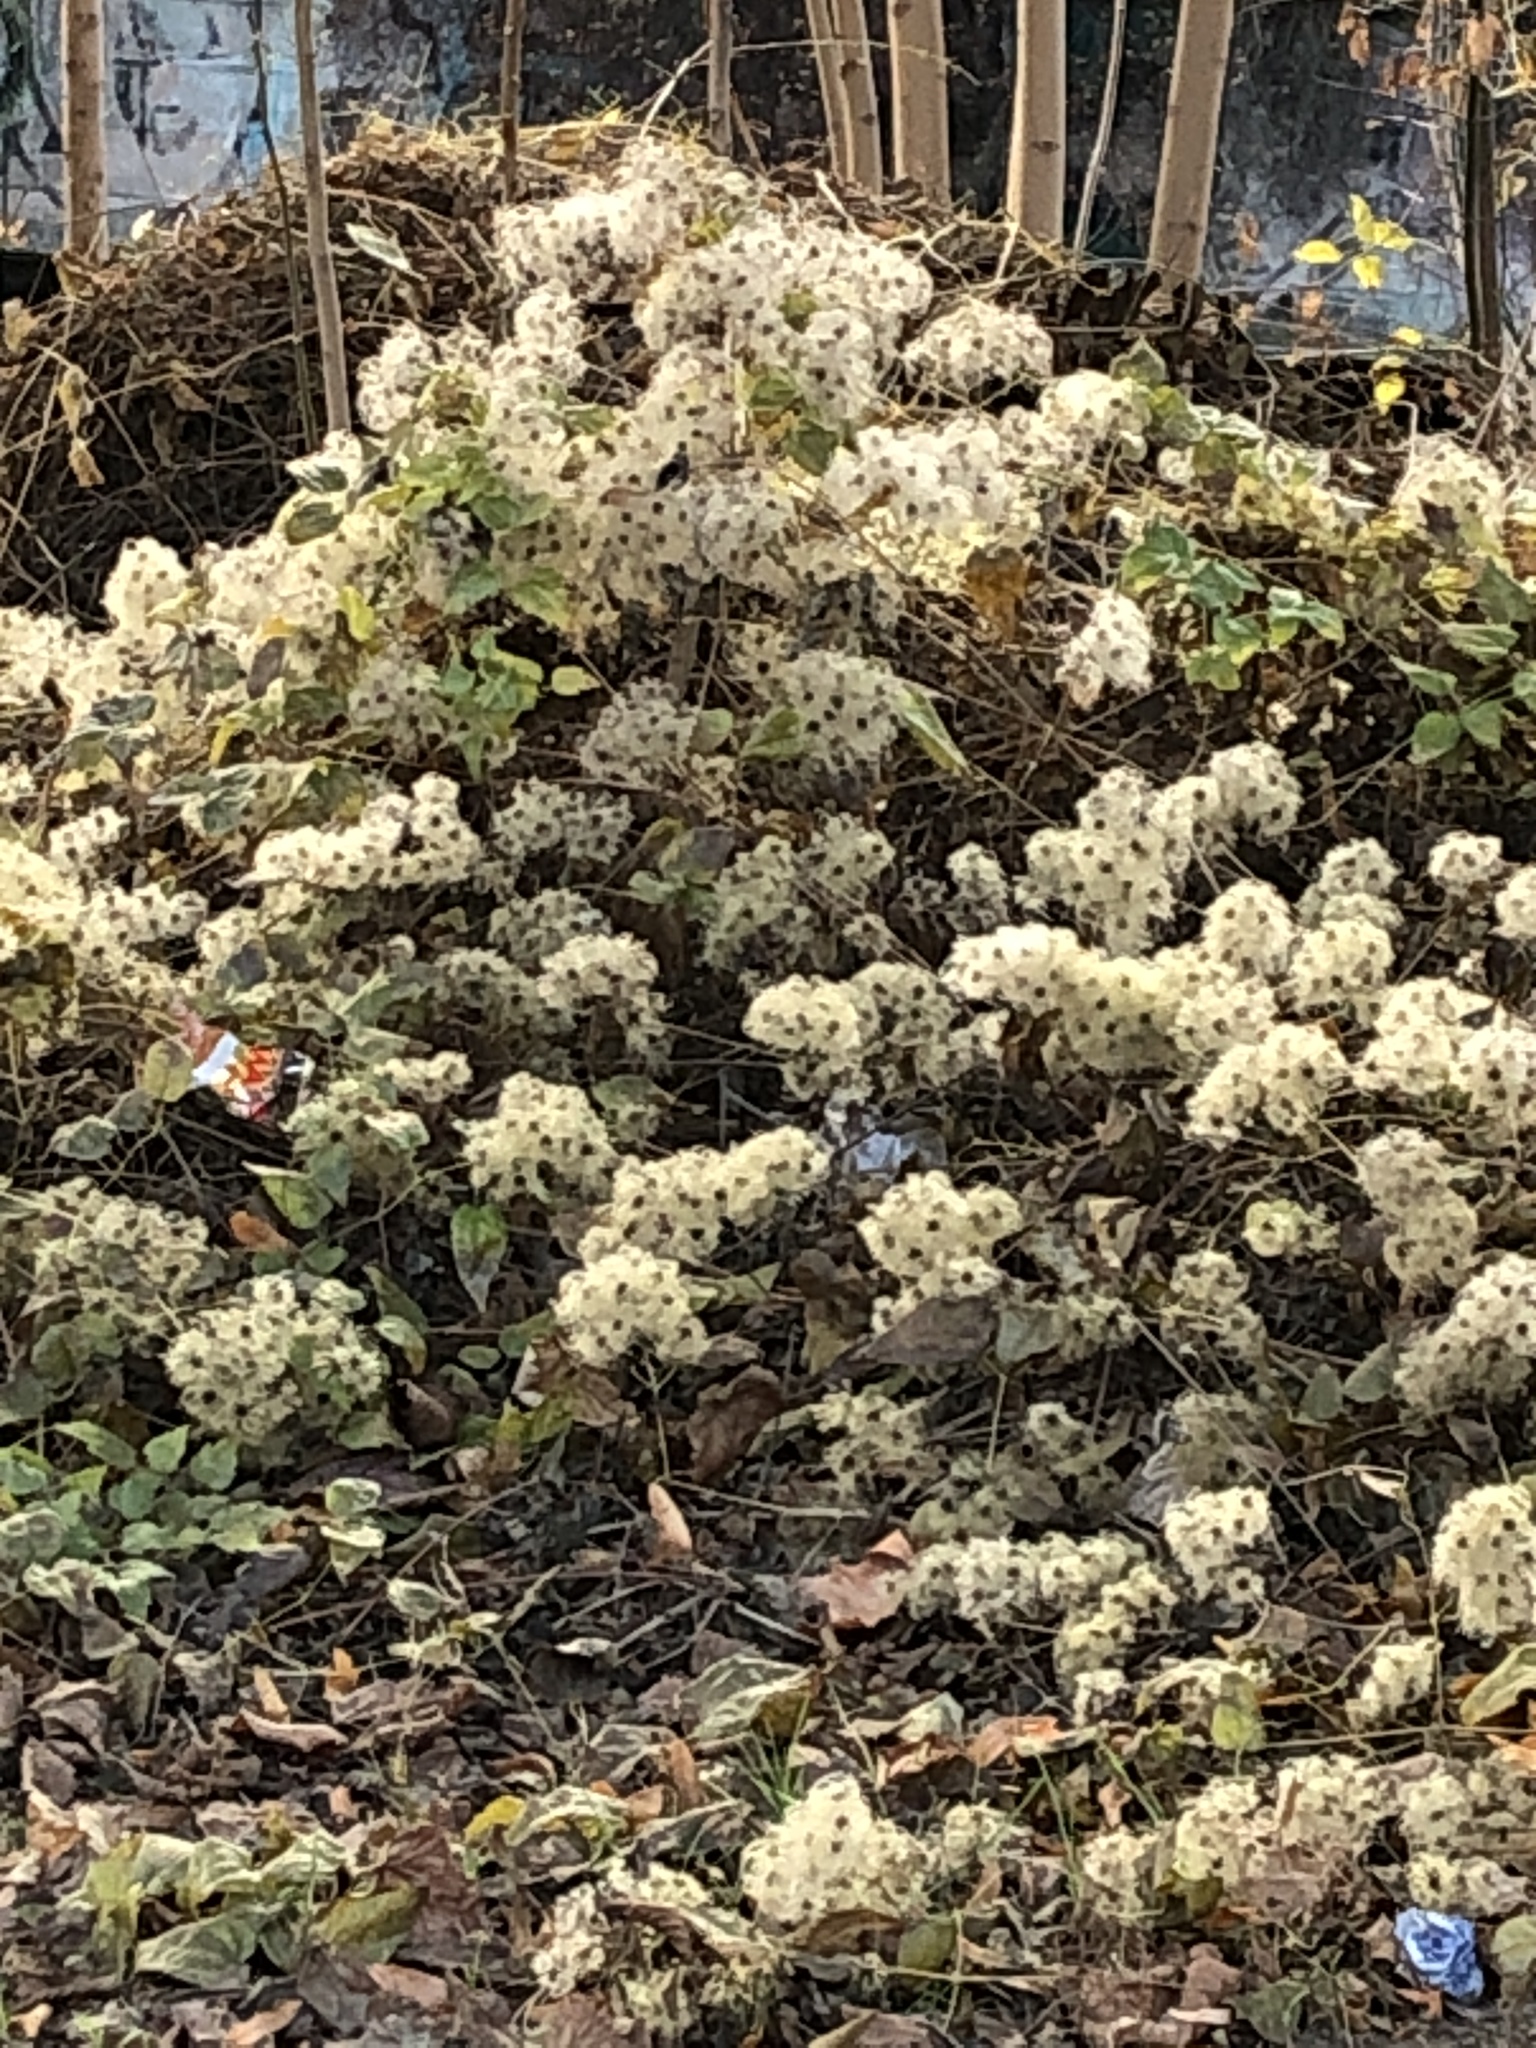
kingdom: Plantae
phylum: Tracheophyta
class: Magnoliopsida
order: Ranunculales
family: Ranunculaceae
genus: Clematis
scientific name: Clematis vitalba
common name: Evergreen clematis
